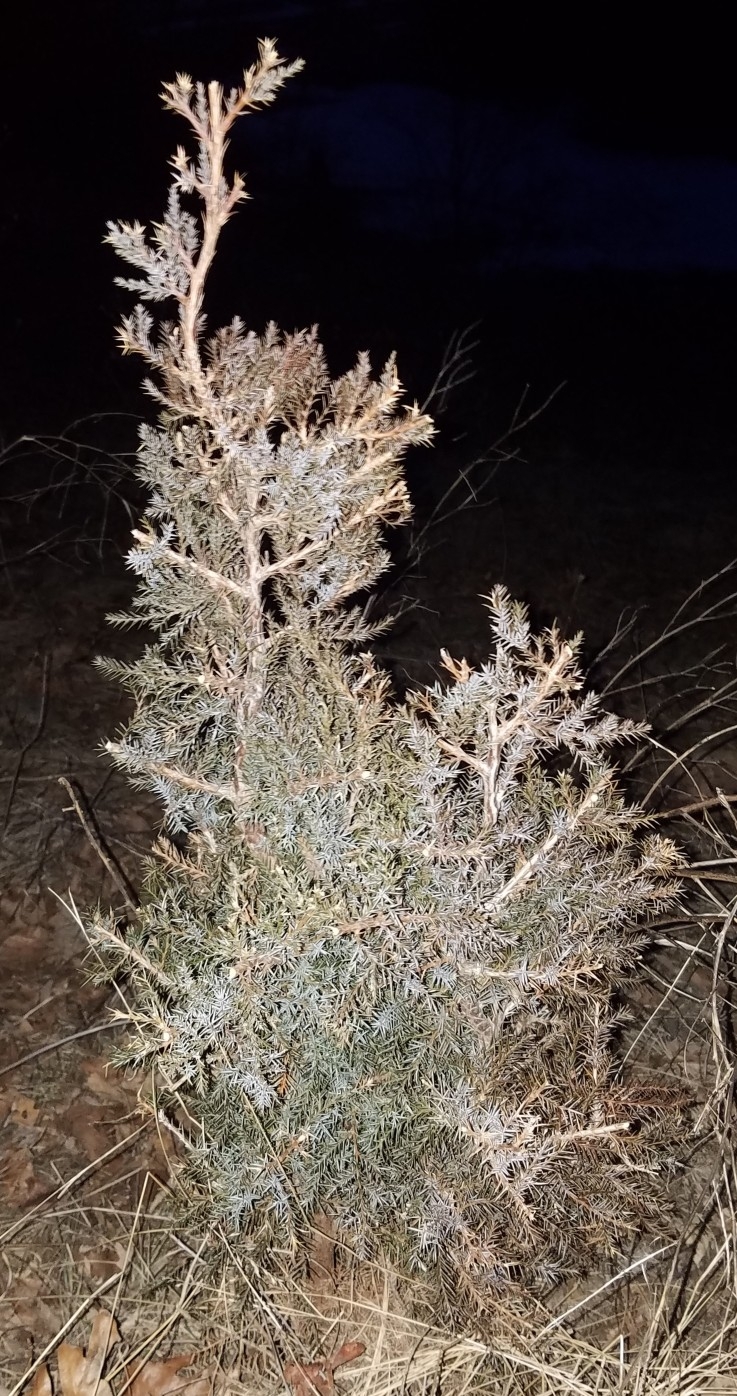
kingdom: Plantae
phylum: Tracheophyta
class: Pinopsida
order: Pinales
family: Cupressaceae
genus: Juniperus
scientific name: Juniperus virginiana
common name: Red juniper
